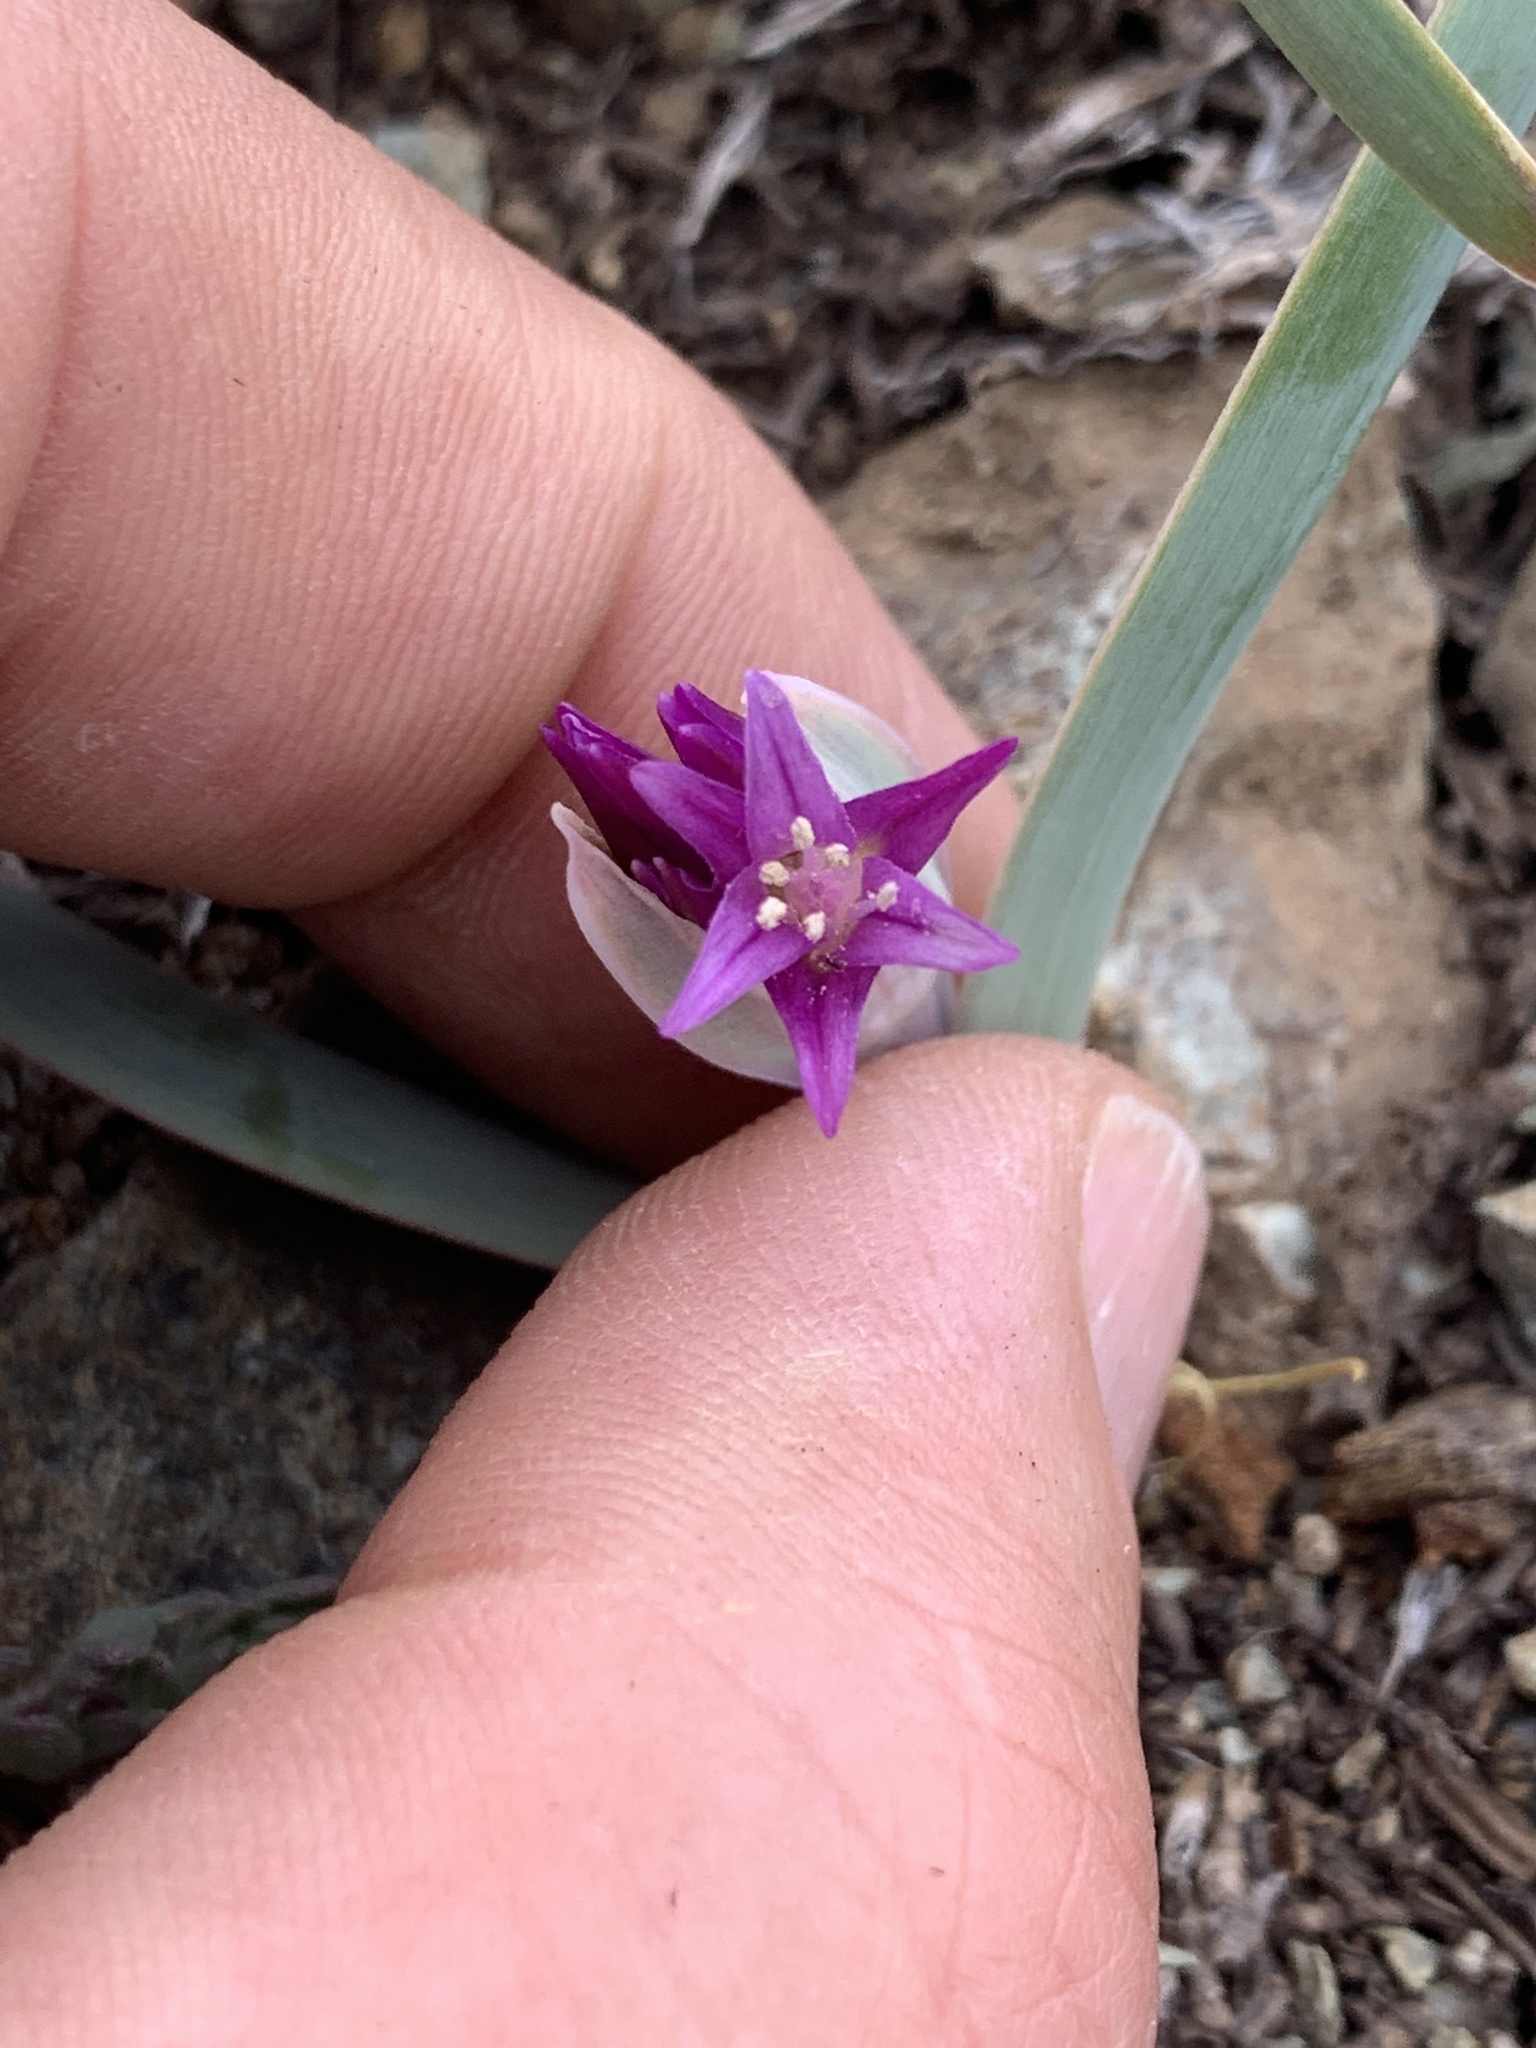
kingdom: Plantae
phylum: Tracheophyta
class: Liliopsida
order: Asparagales
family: Amaryllidaceae
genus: Allium
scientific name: Allium falcifolium
